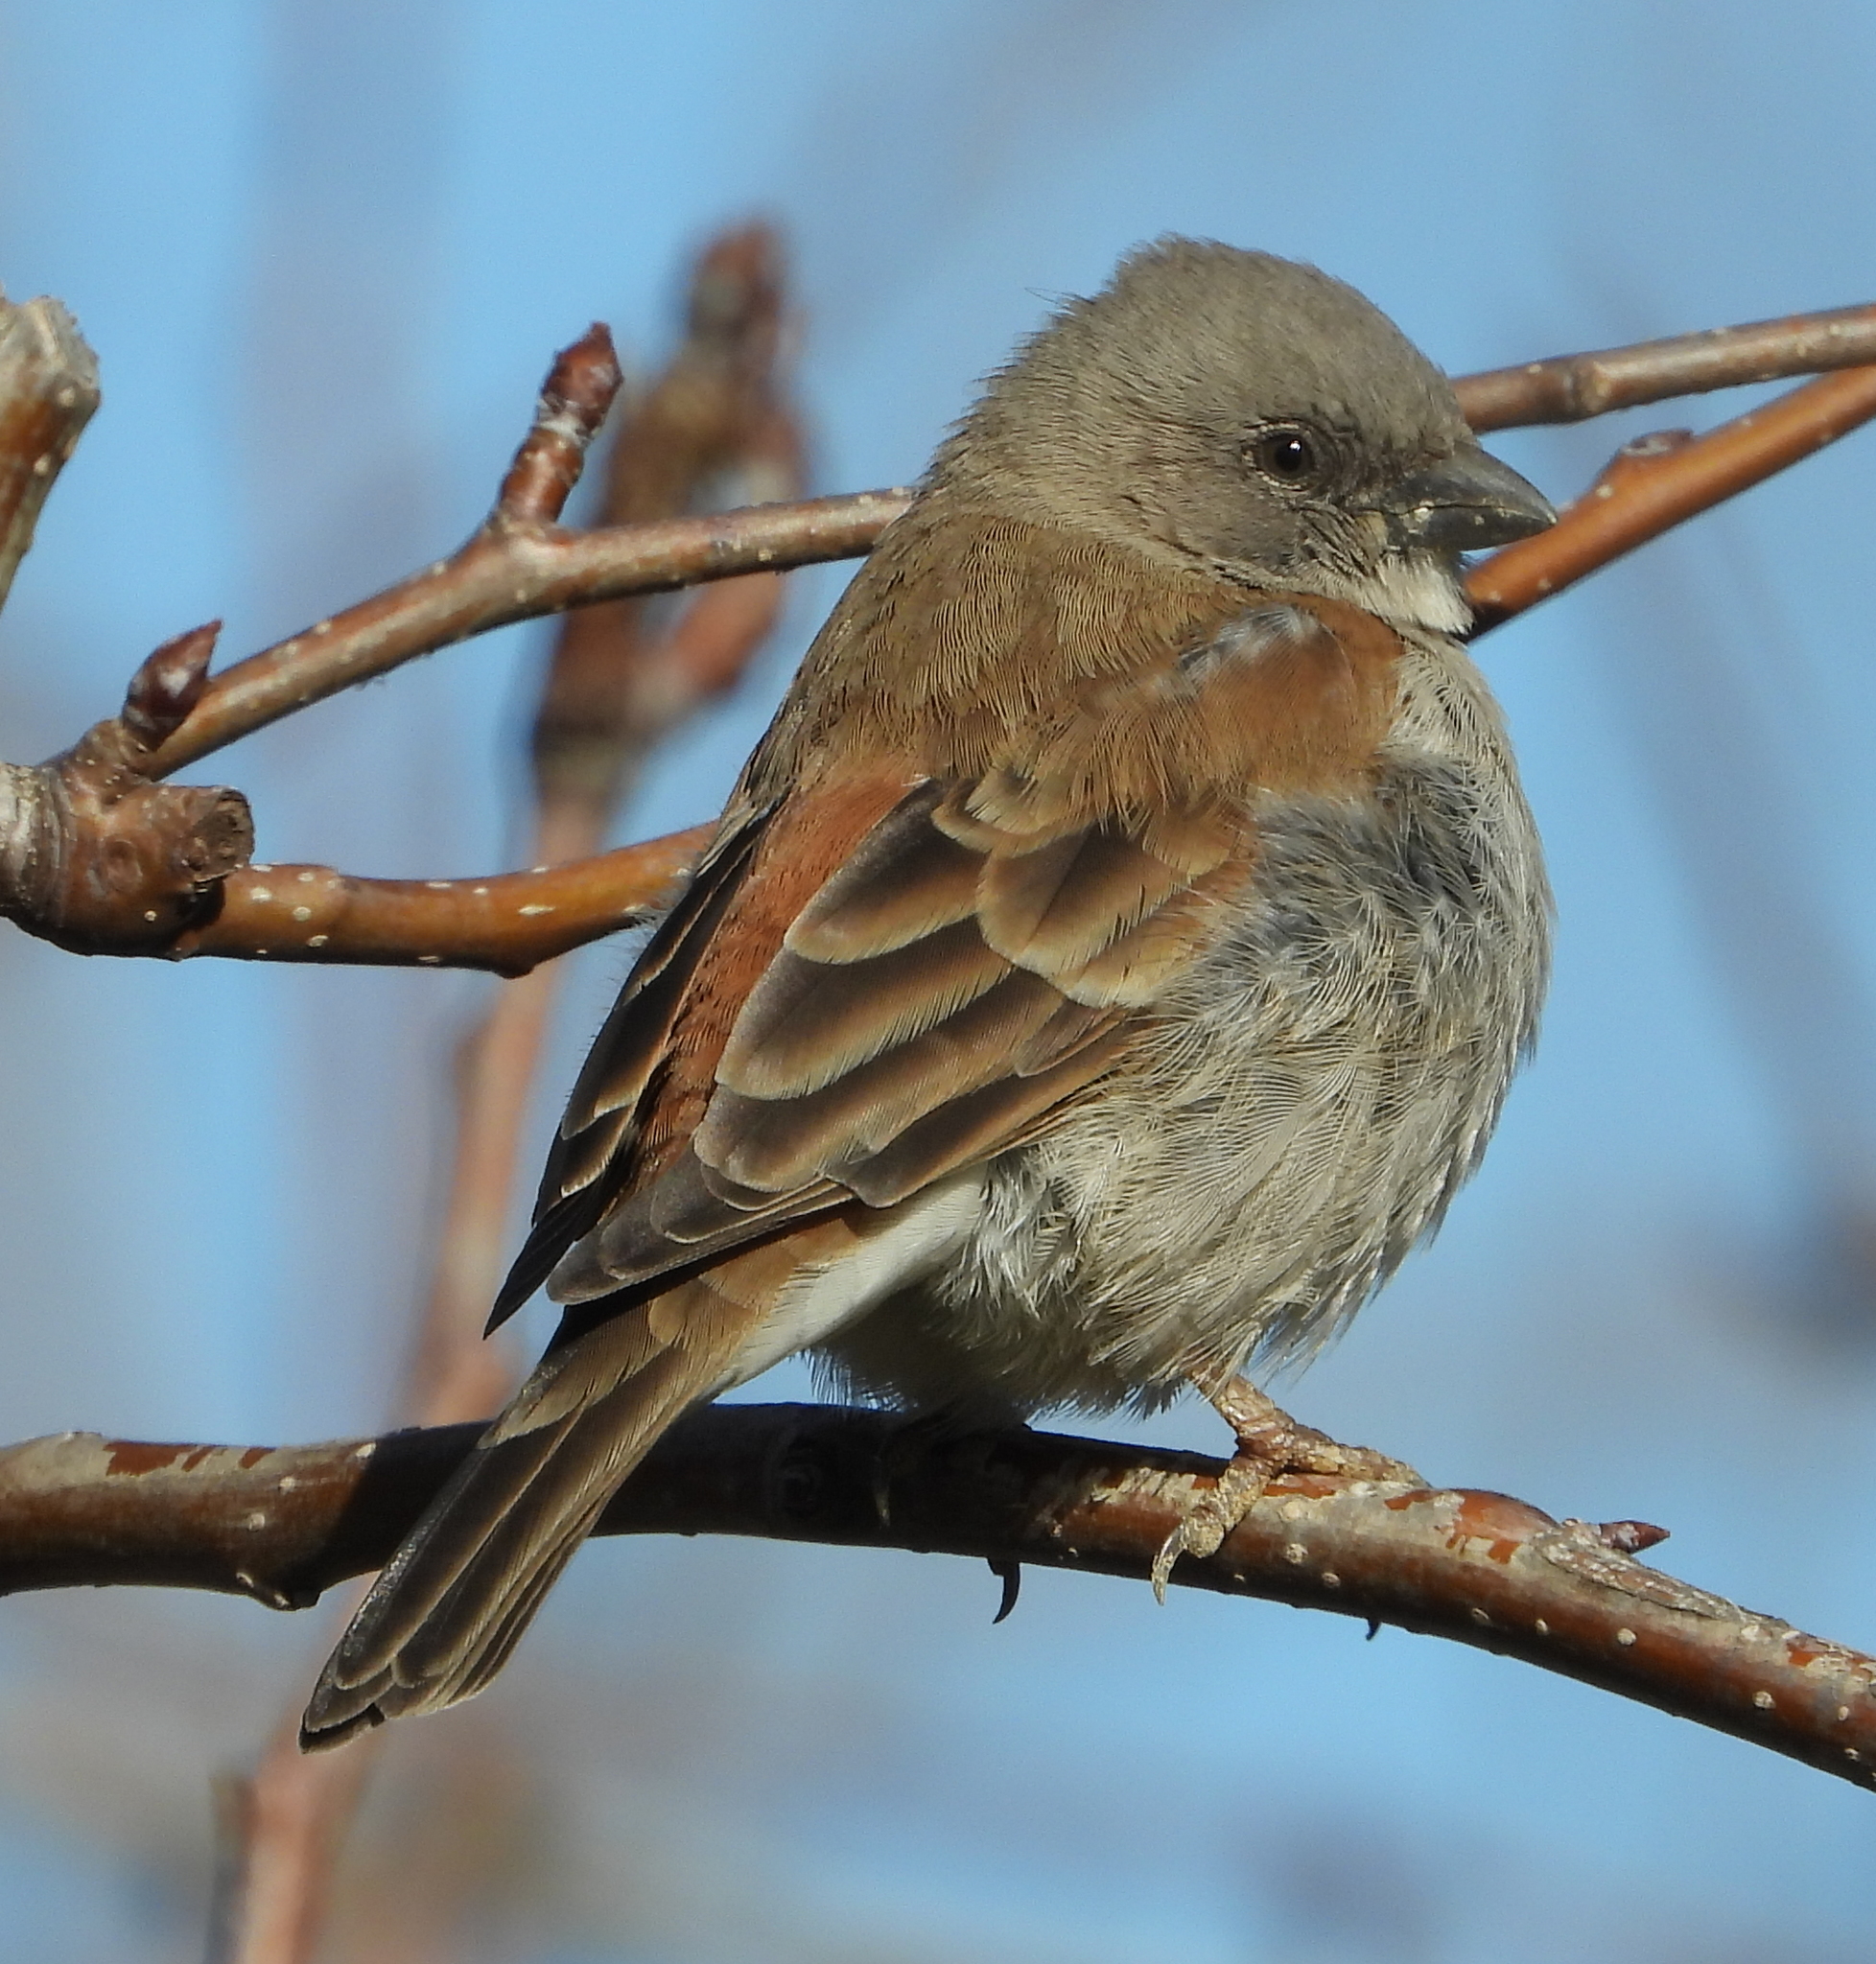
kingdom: Animalia
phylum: Chordata
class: Aves
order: Passeriformes
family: Passeridae
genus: Passer
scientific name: Passer diffusus
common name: Southern grey-headed sparrow
